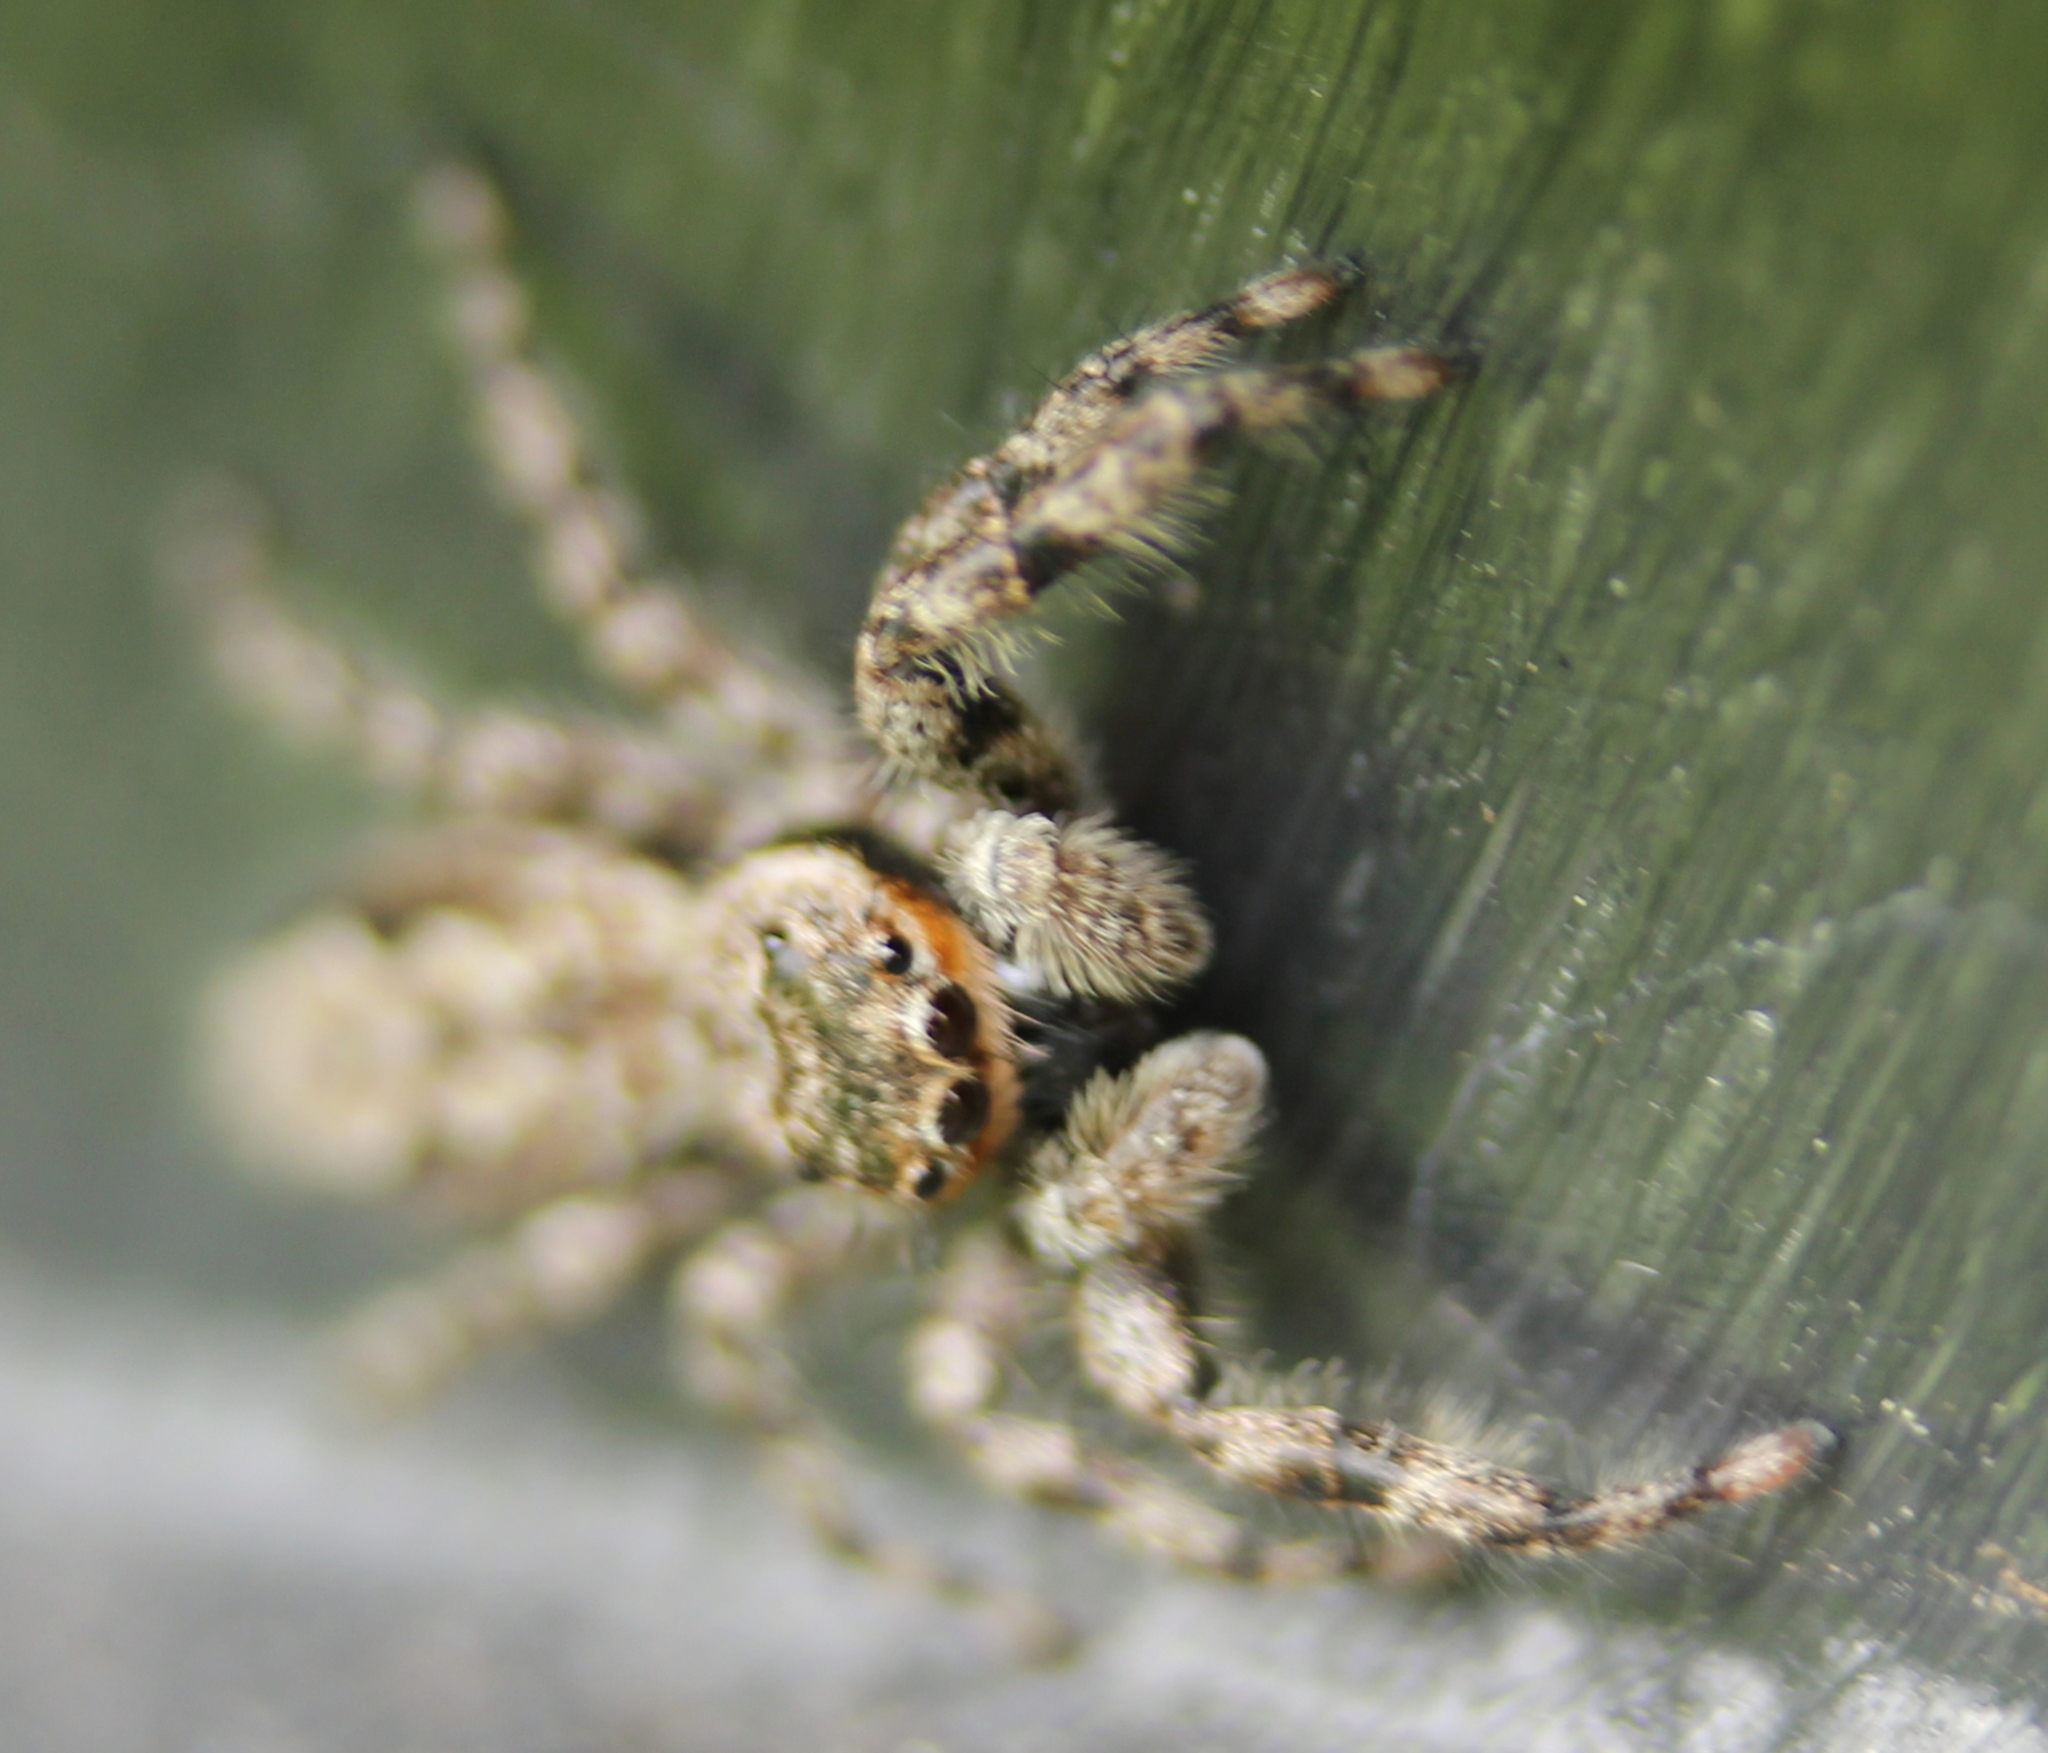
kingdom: Animalia
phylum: Arthropoda
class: Arachnida
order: Araneae
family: Salticidae
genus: Platycryptus
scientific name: Platycryptus undatus
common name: Tan jumping spider
